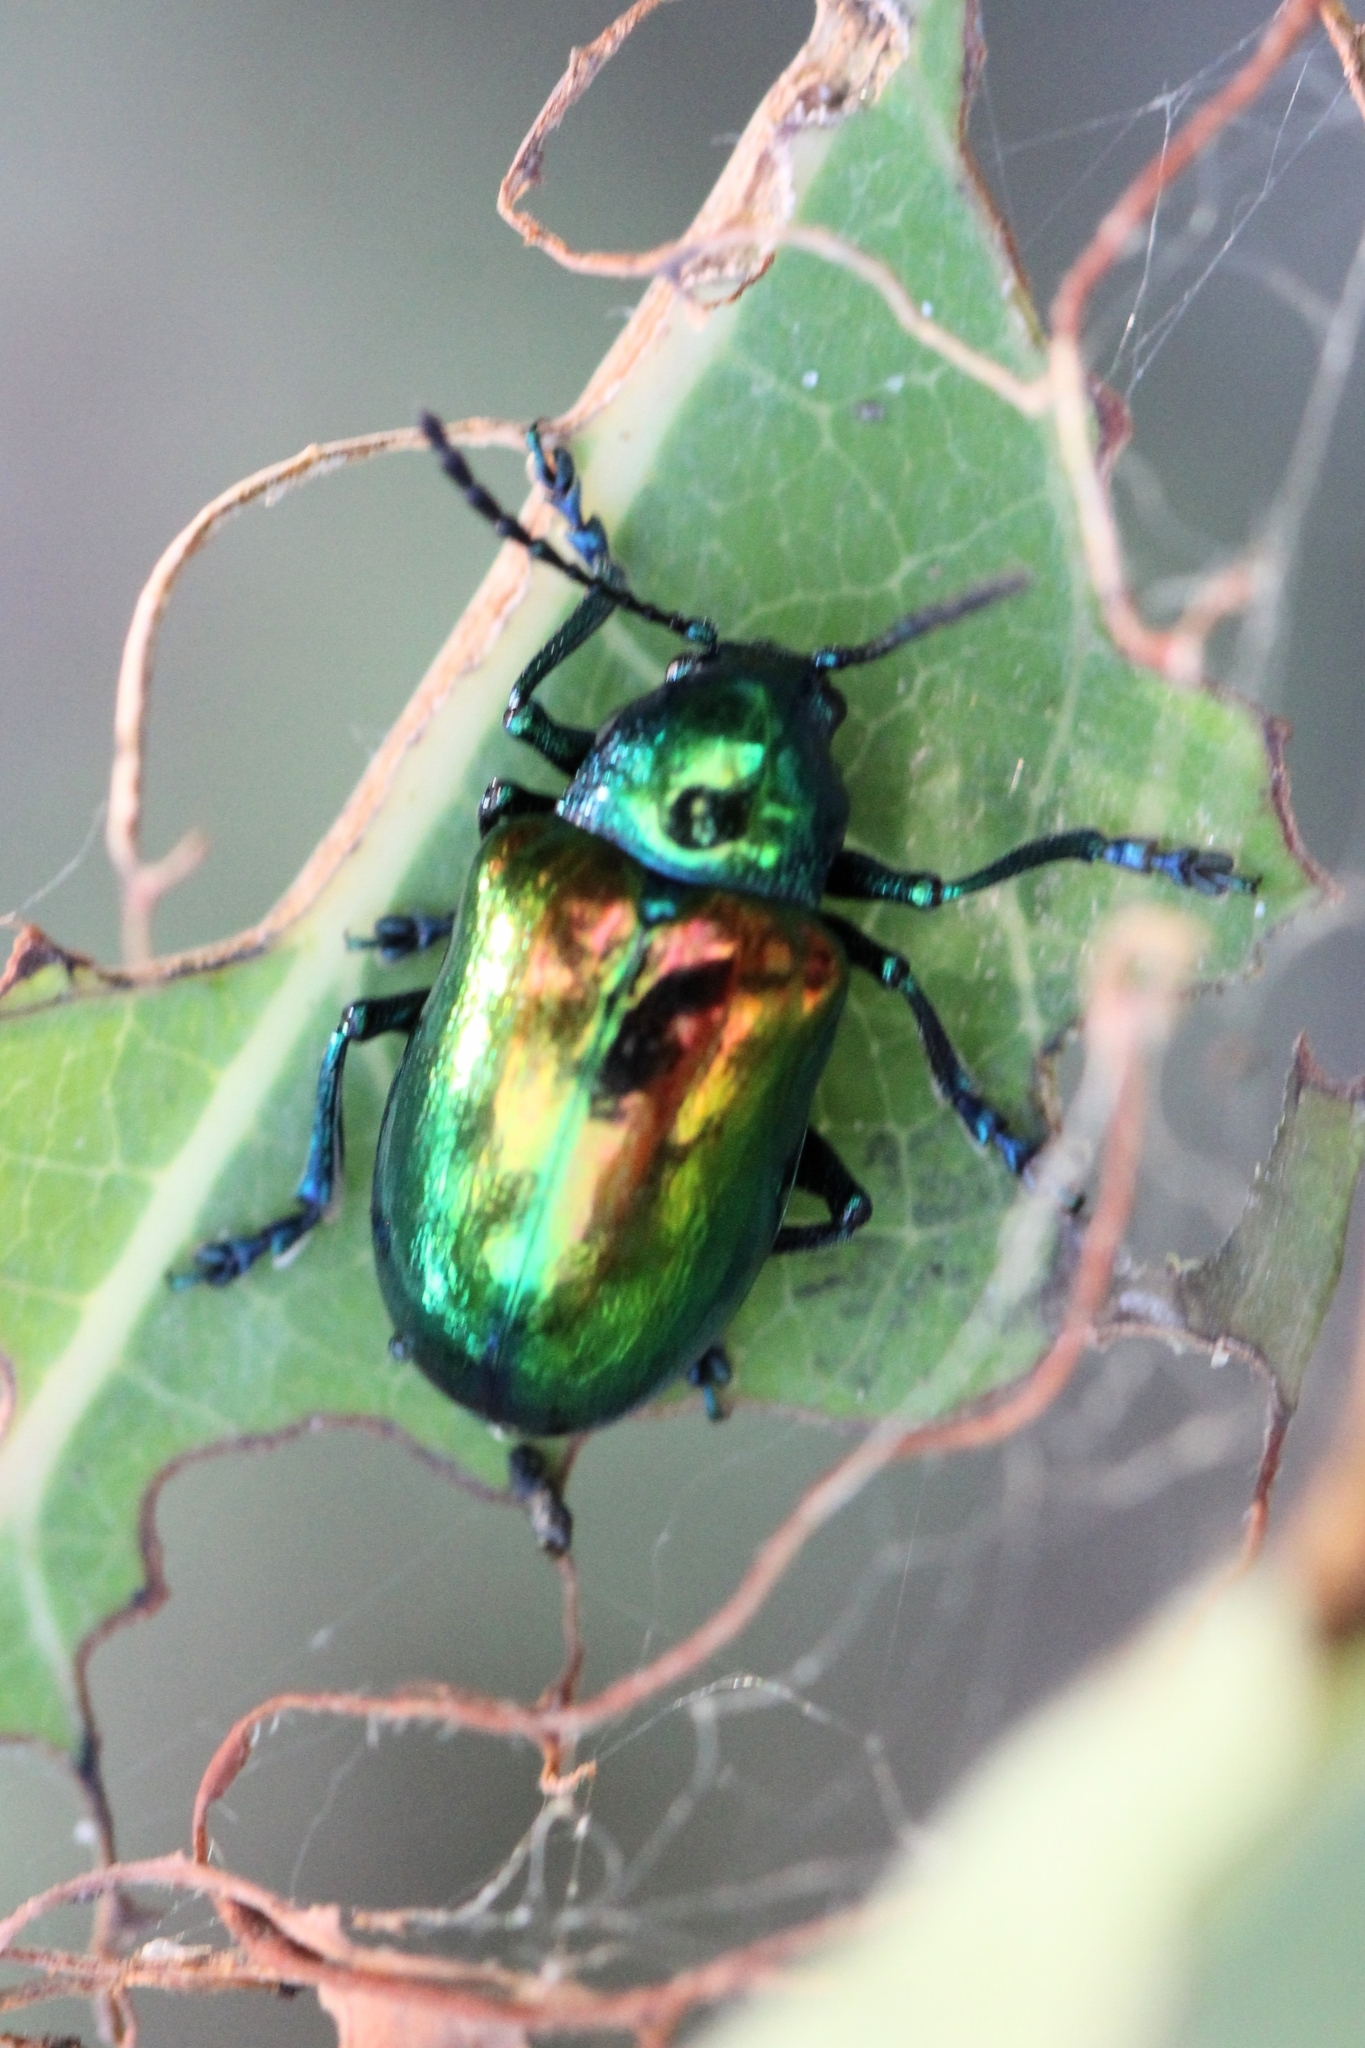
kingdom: Animalia
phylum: Arthropoda
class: Insecta
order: Coleoptera
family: Chrysomelidae
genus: Chrysochus
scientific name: Chrysochus auratus
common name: Dogbane leaf beetle
